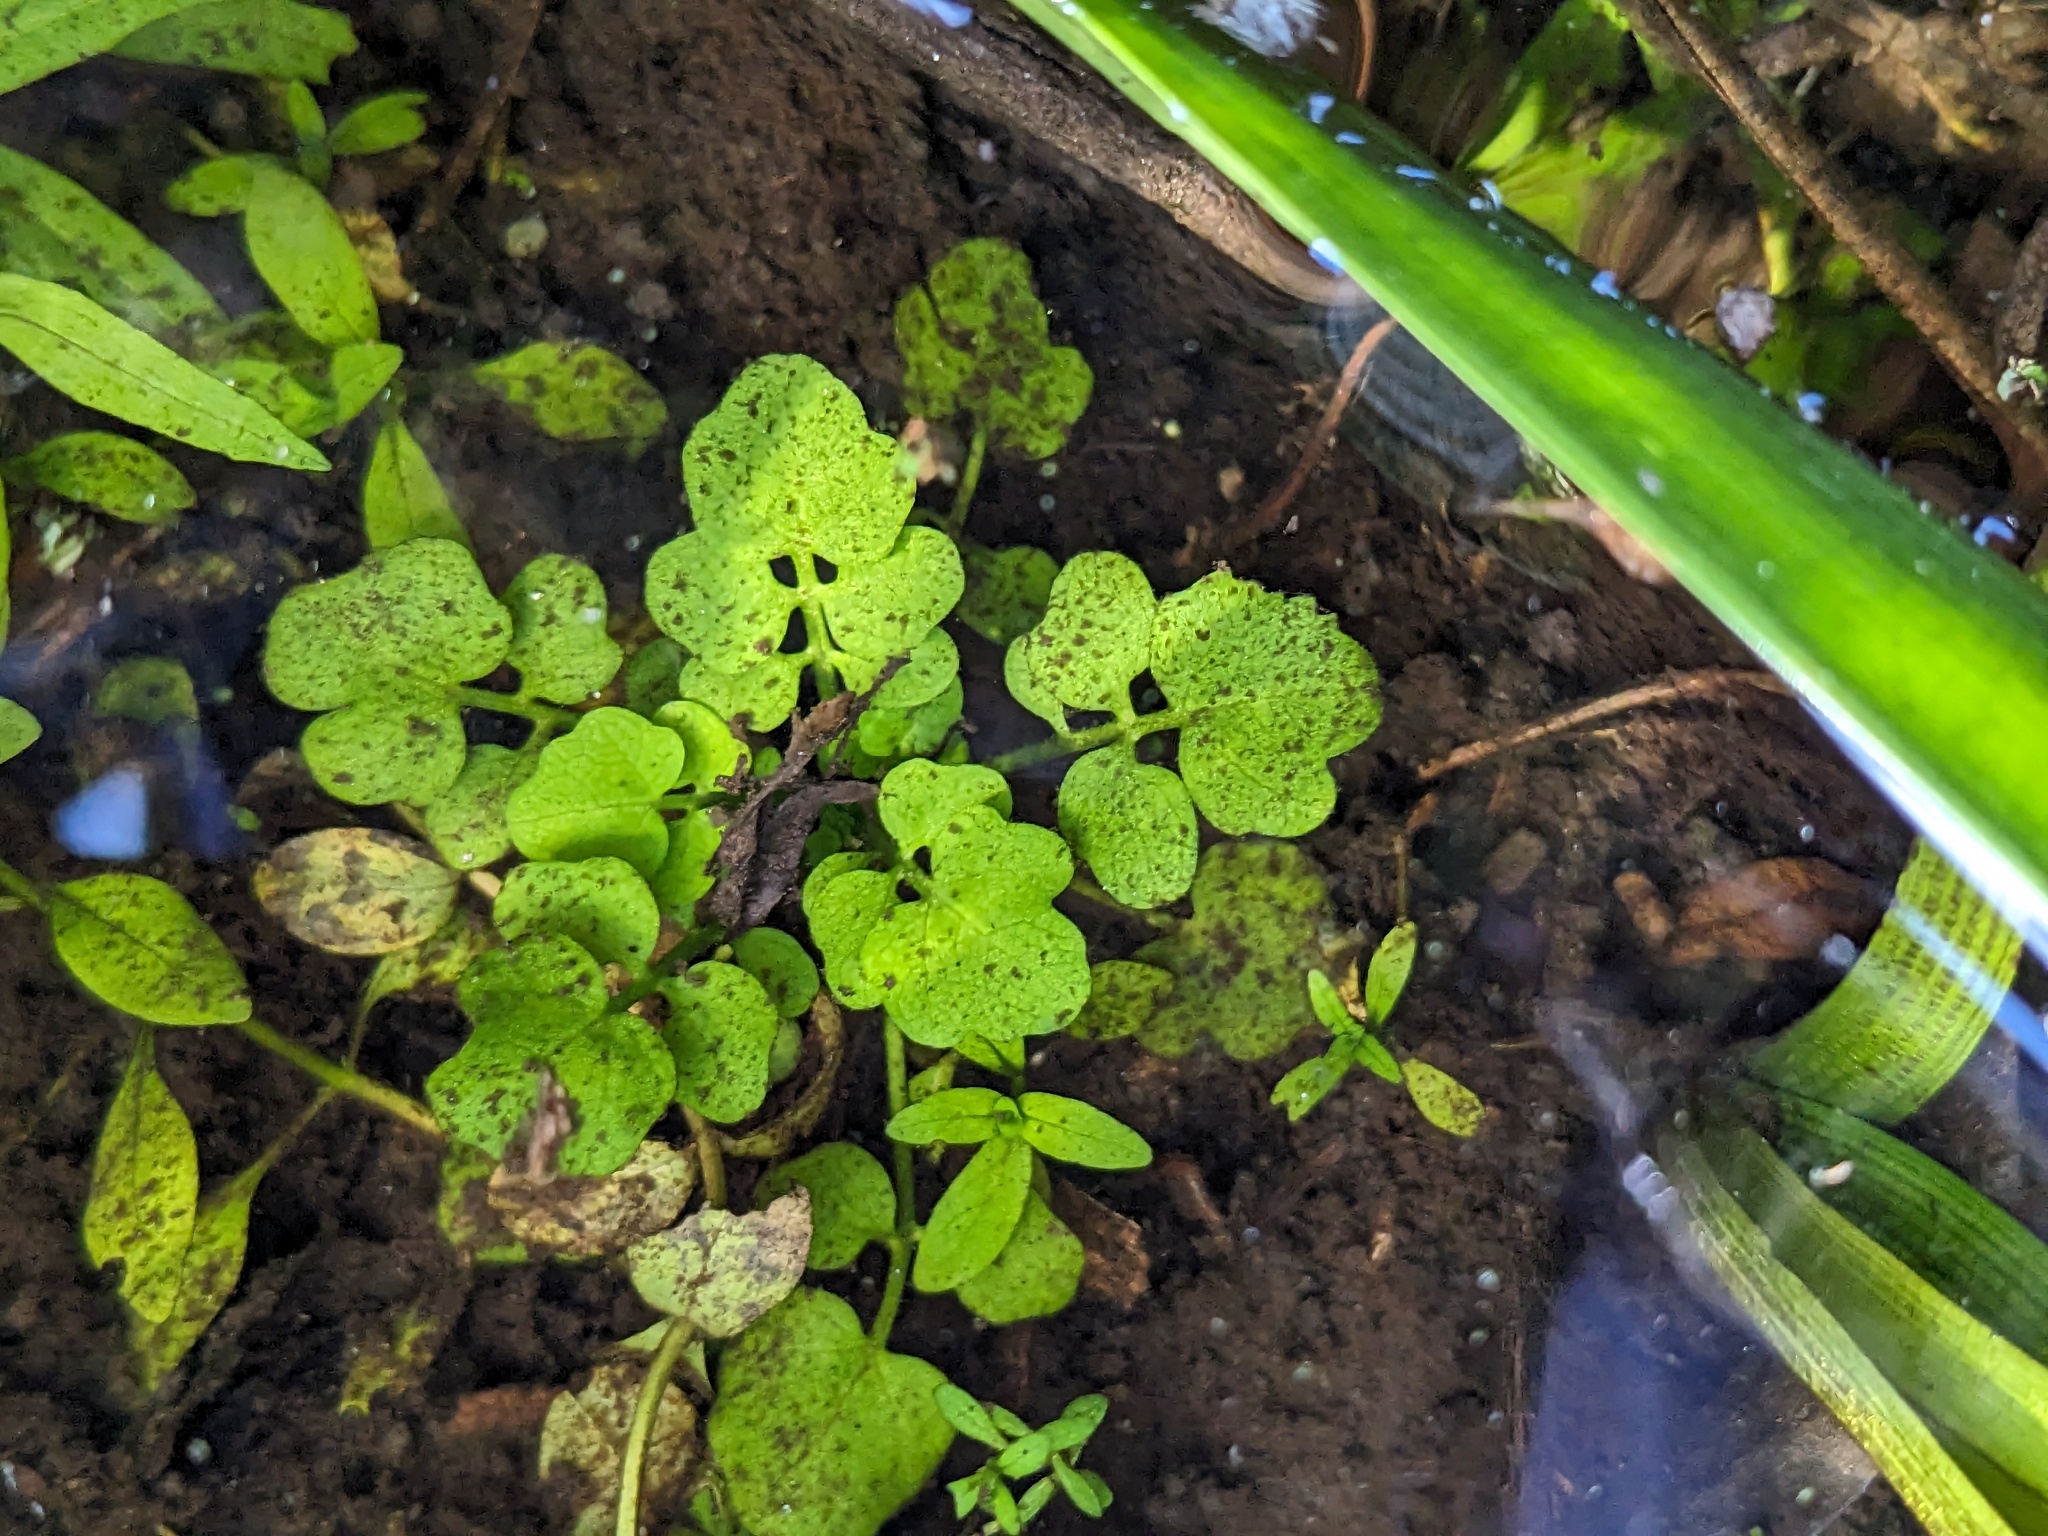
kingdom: Plantae
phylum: Tracheophyta
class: Magnoliopsida
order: Brassicales
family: Brassicaceae
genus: Cardamine
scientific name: Cardamine pensylvanica
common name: Pennsylvania bittercress
